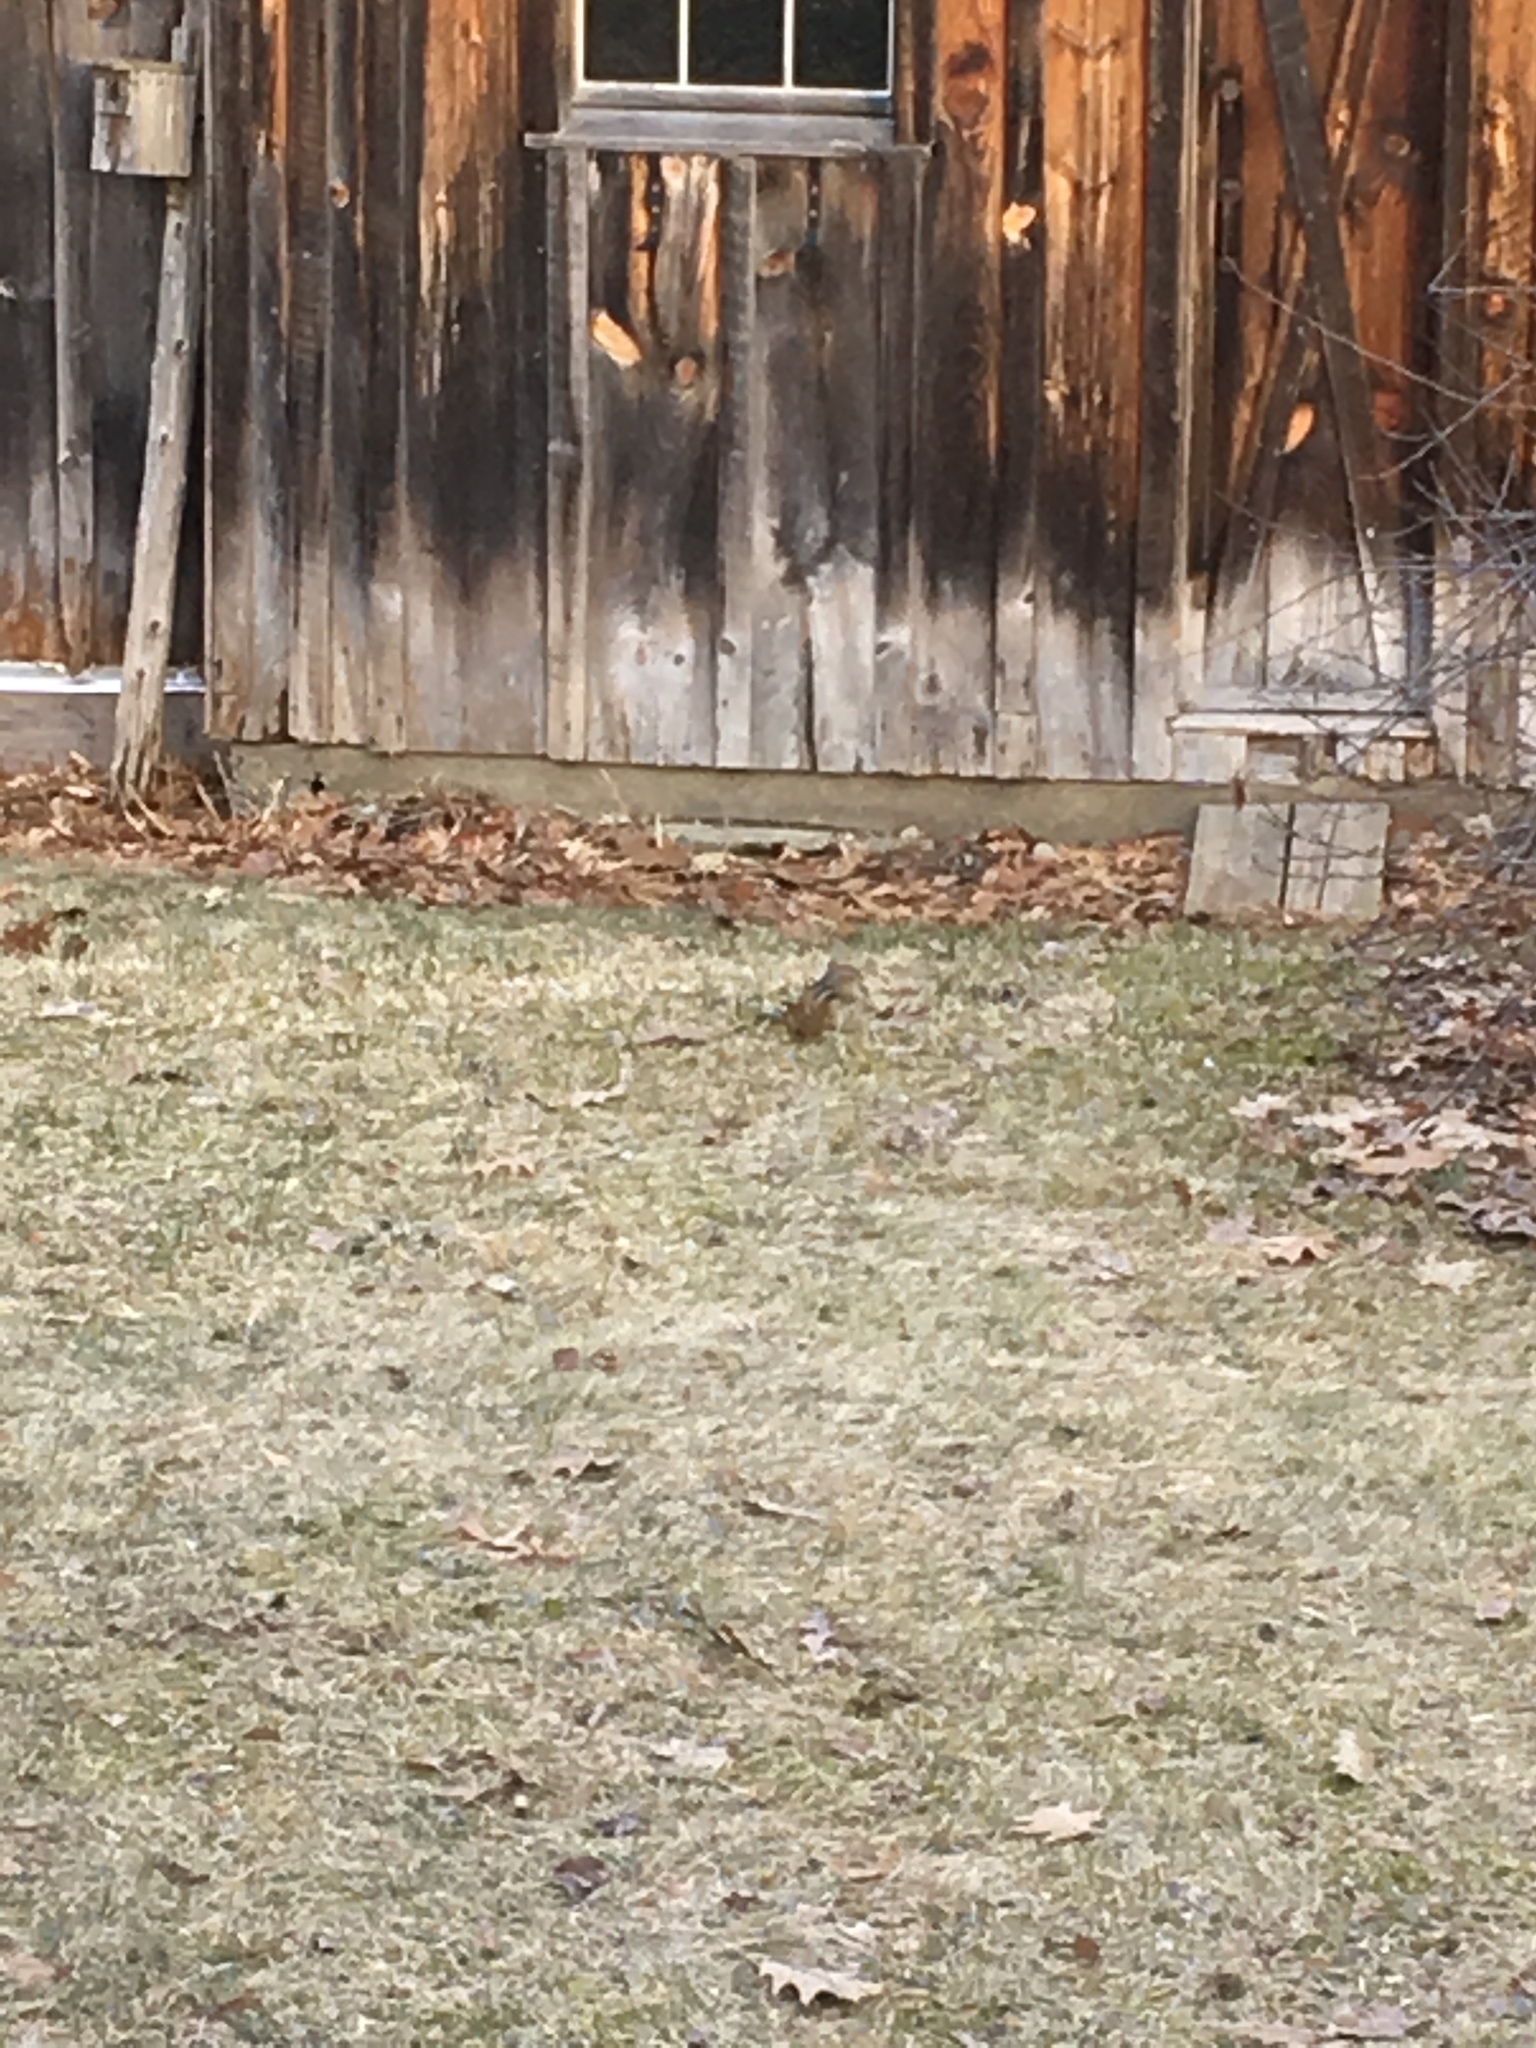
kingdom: Animalia
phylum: Chordata
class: Mammalia
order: Rodentia
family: Sciuridae
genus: Tamias
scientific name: Tamias striatus
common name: Eastern chipmunk
